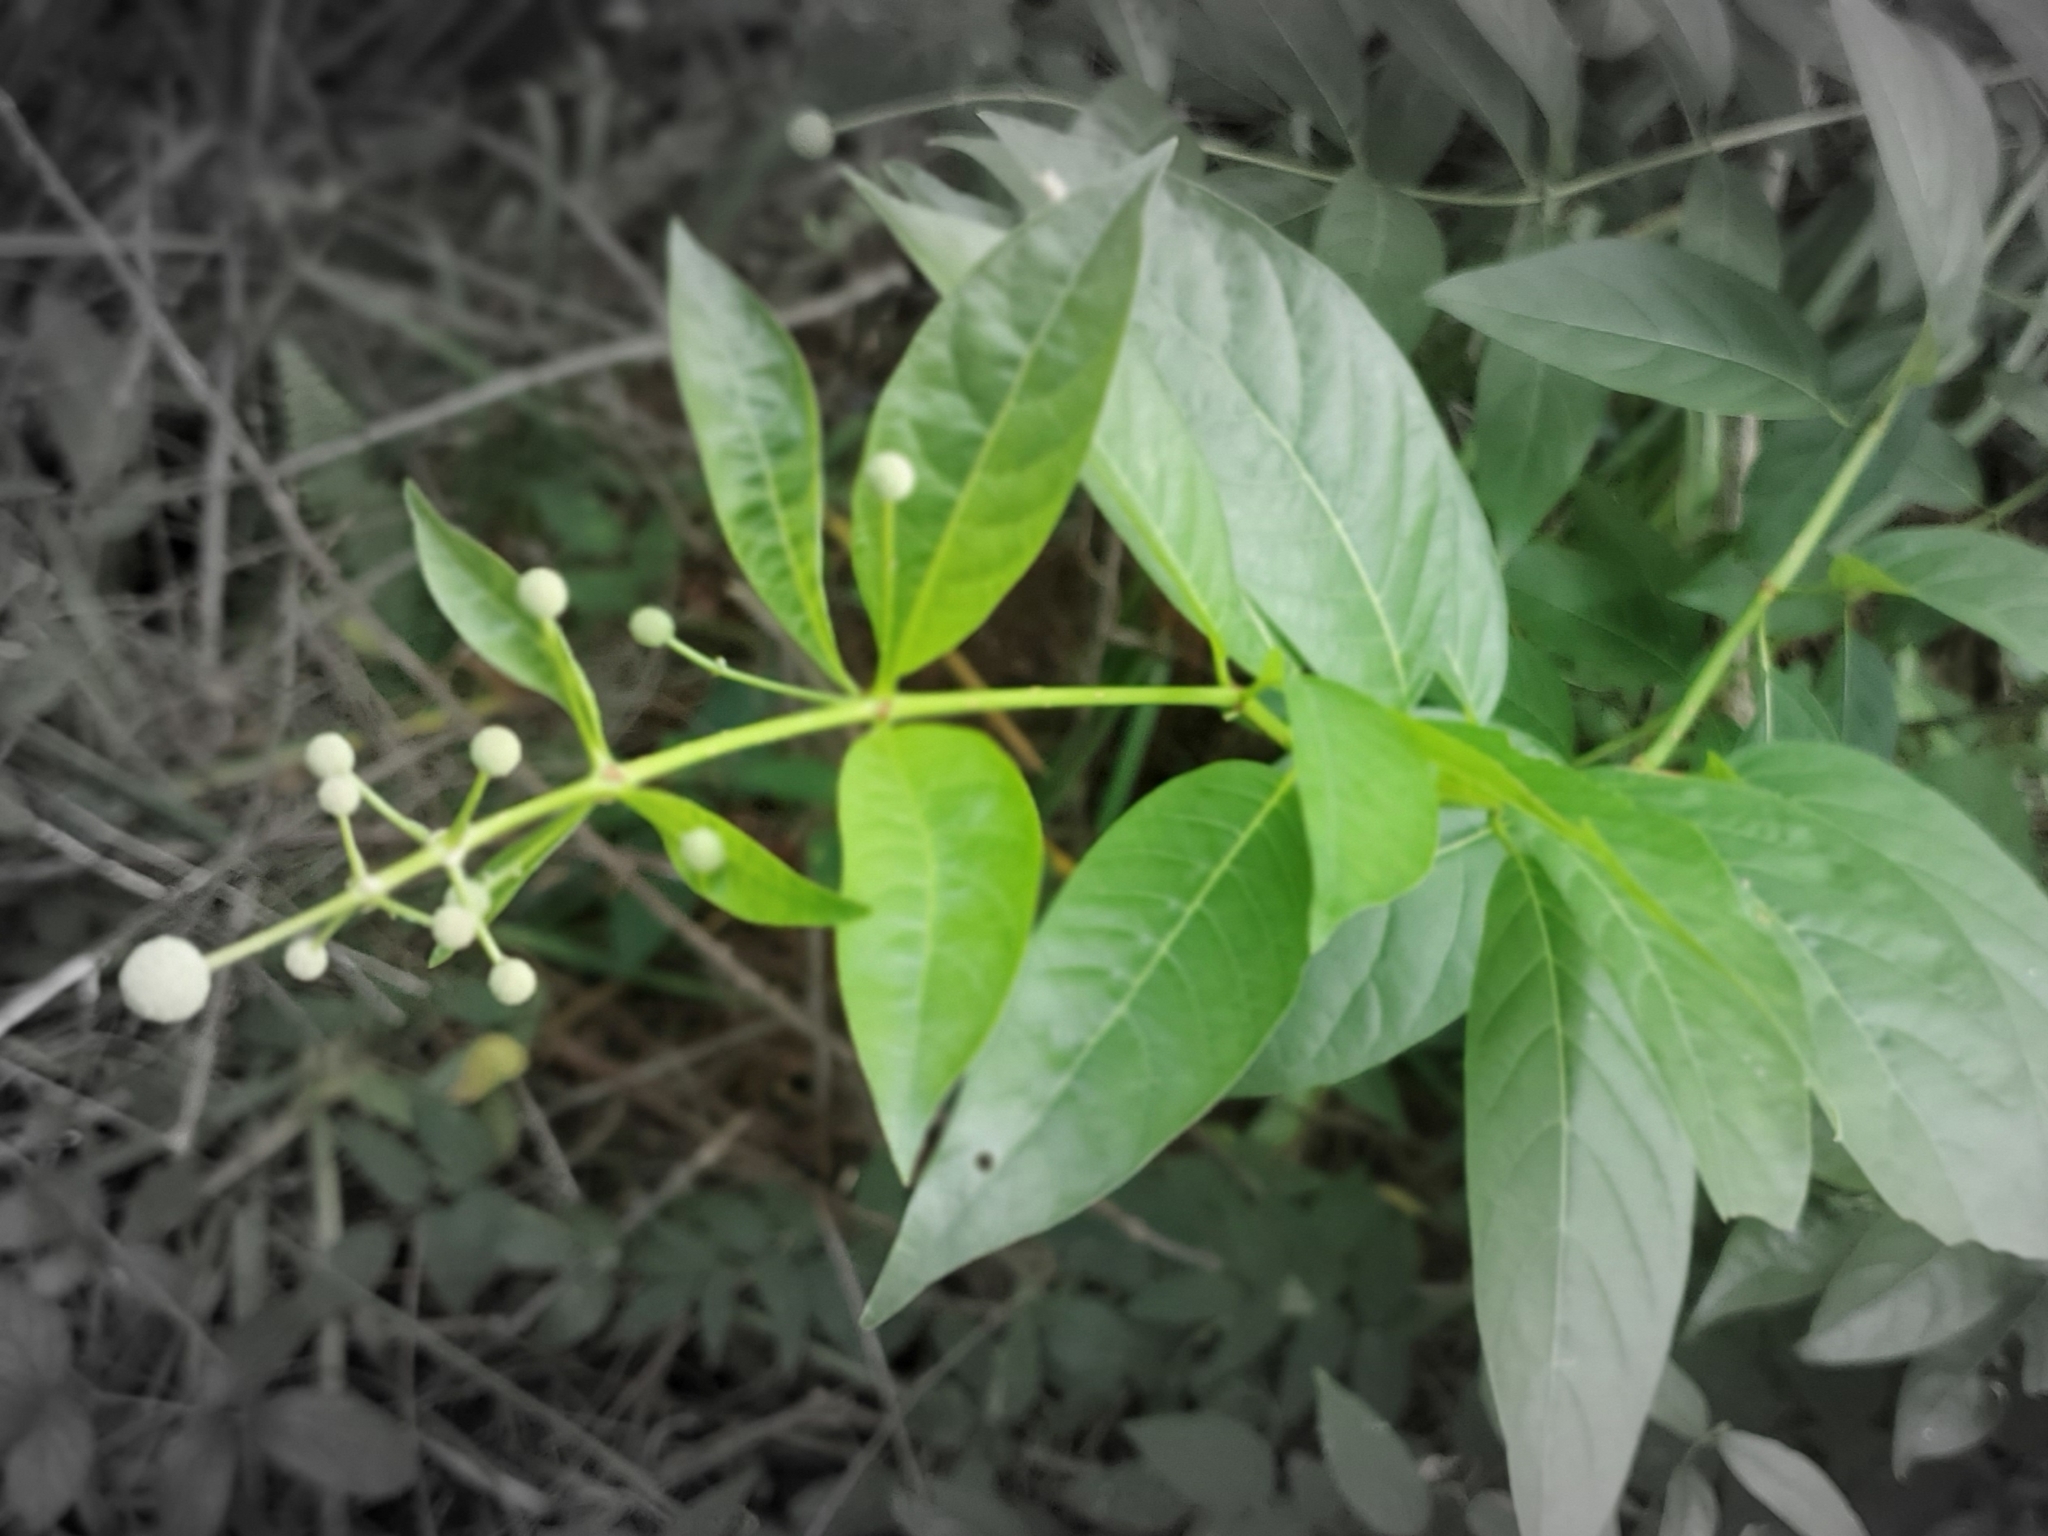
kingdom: Plantae
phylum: Tracheophyta
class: Magnoliopsida
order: Gentianales
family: Rubiaceae
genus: Cephalanthus
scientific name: Cephalanthus occidentalis
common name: Button-willow
